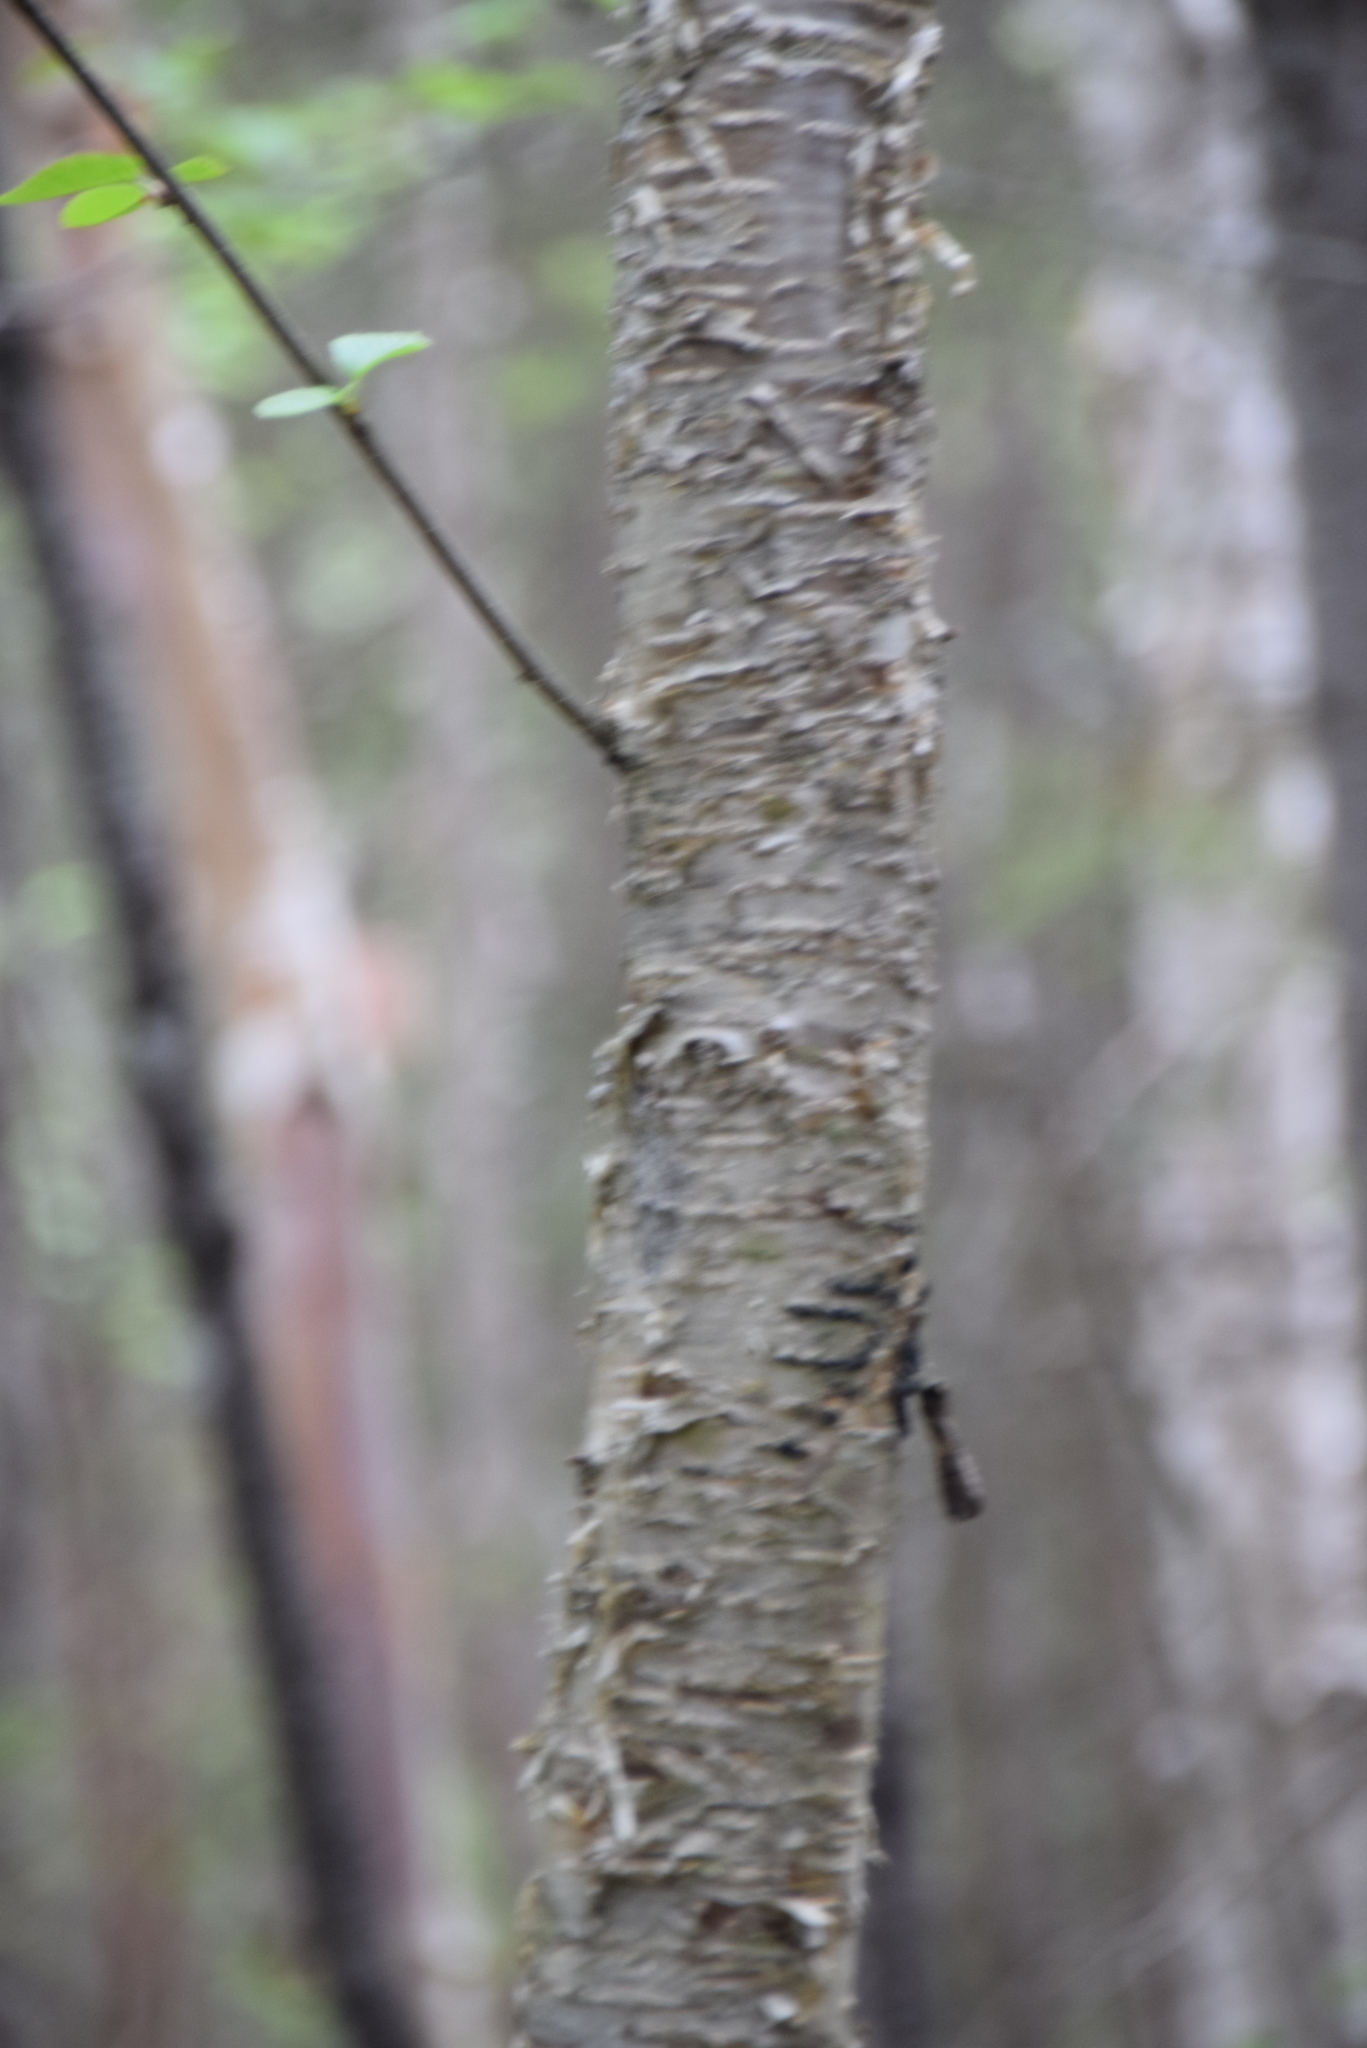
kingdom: Plantae
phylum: Tracheophyta
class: Magnoliopsida
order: Fagales
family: Betulaceae
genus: Betula
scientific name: Betula alleghaniensis
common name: Yellow birch
